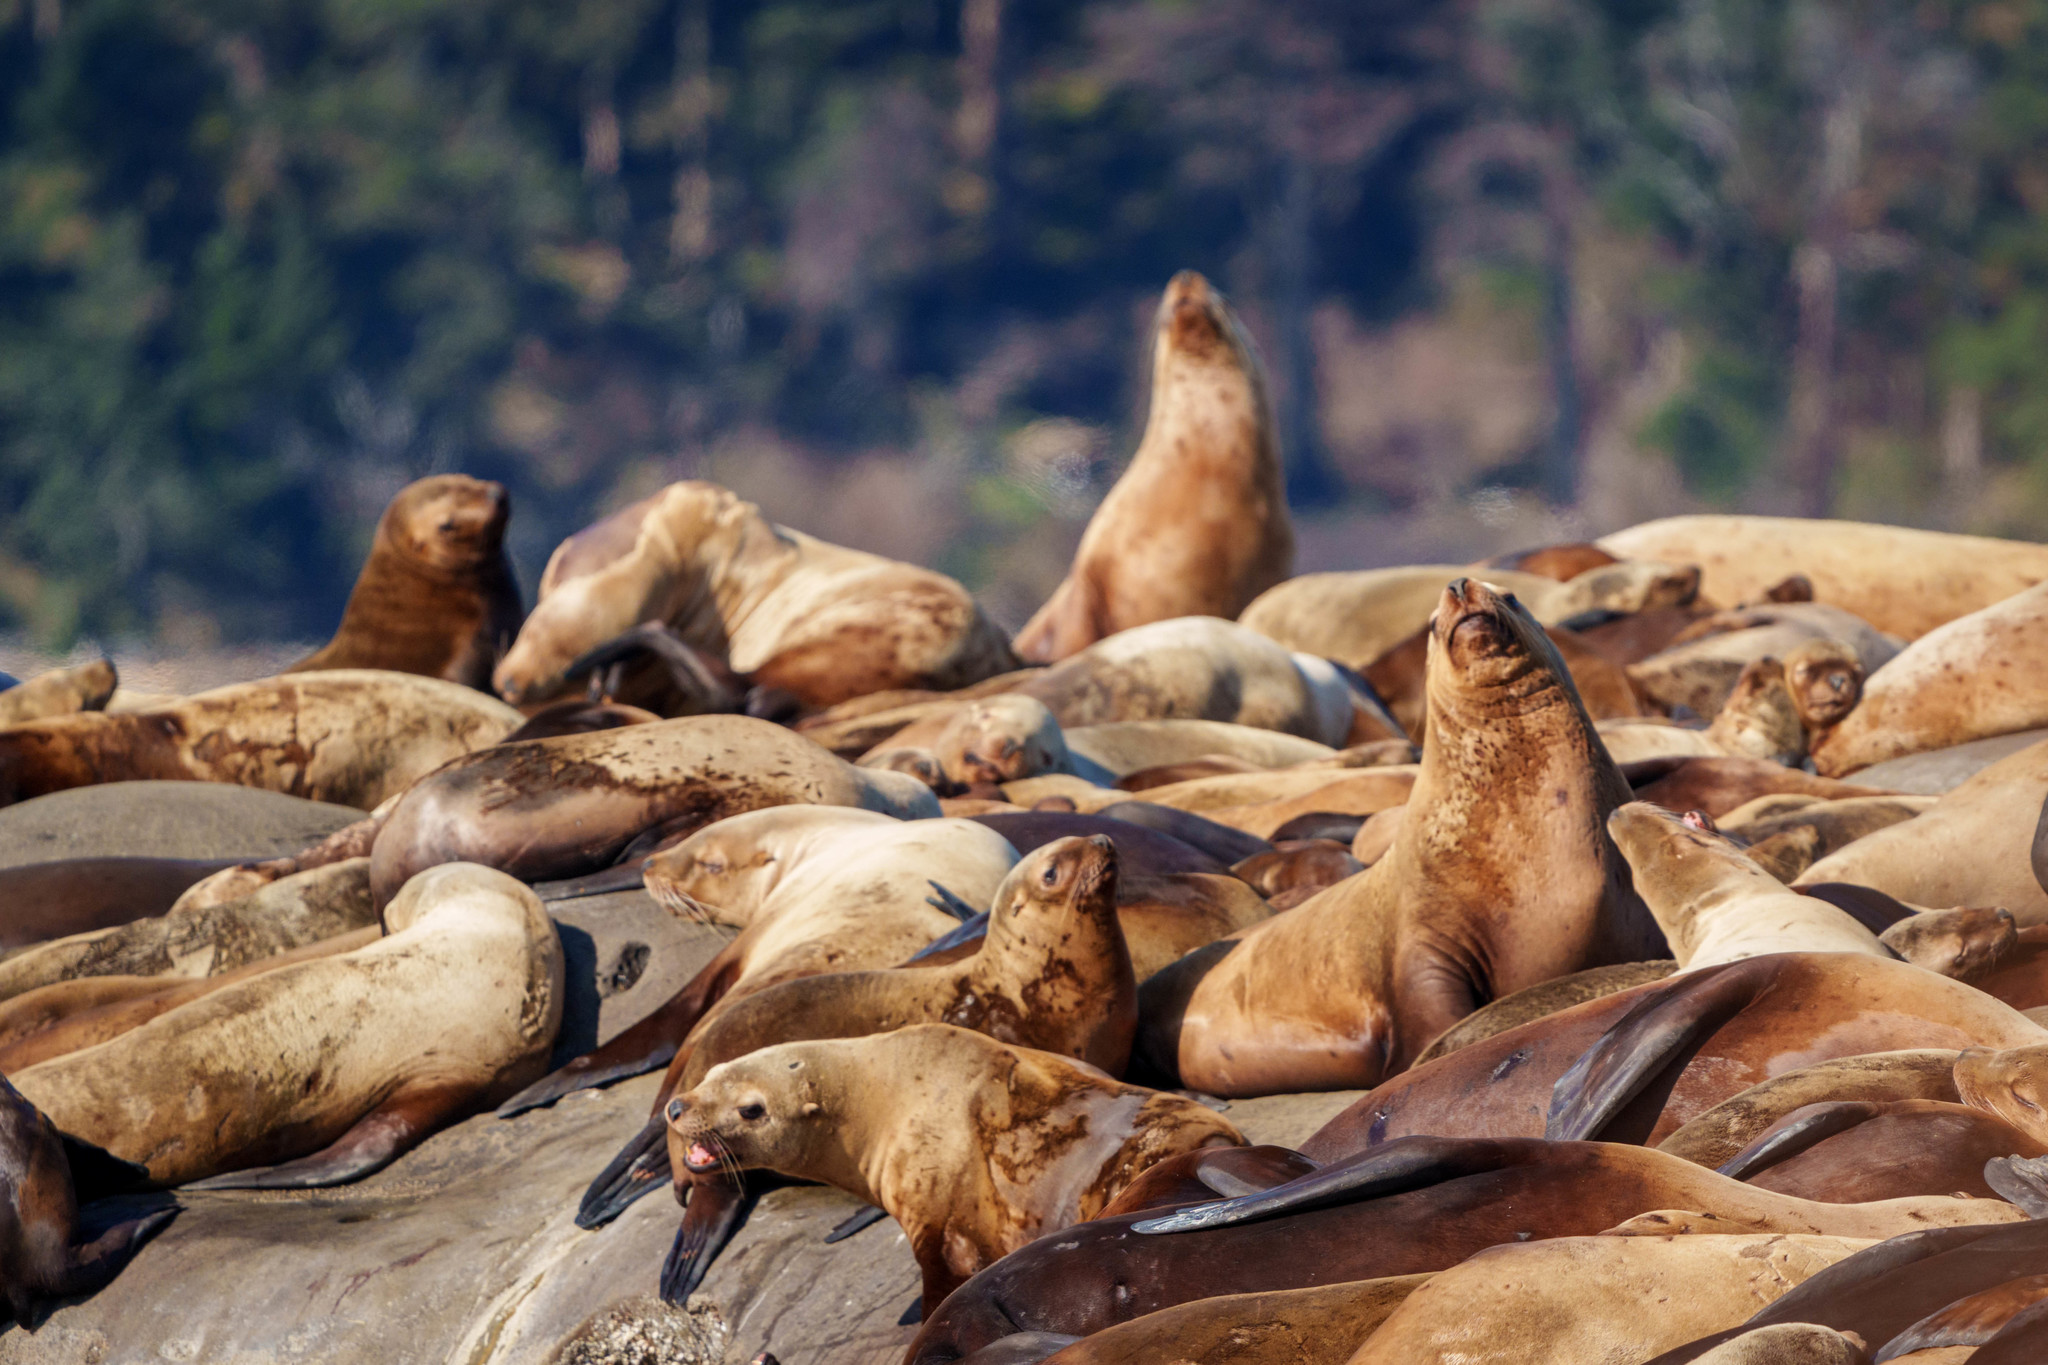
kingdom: Animalia
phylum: Chordata
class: Mammalia
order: Carnivora
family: Otariidae
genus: Eumetopias
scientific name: Eumetopias jubatus
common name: Steller sea lion
